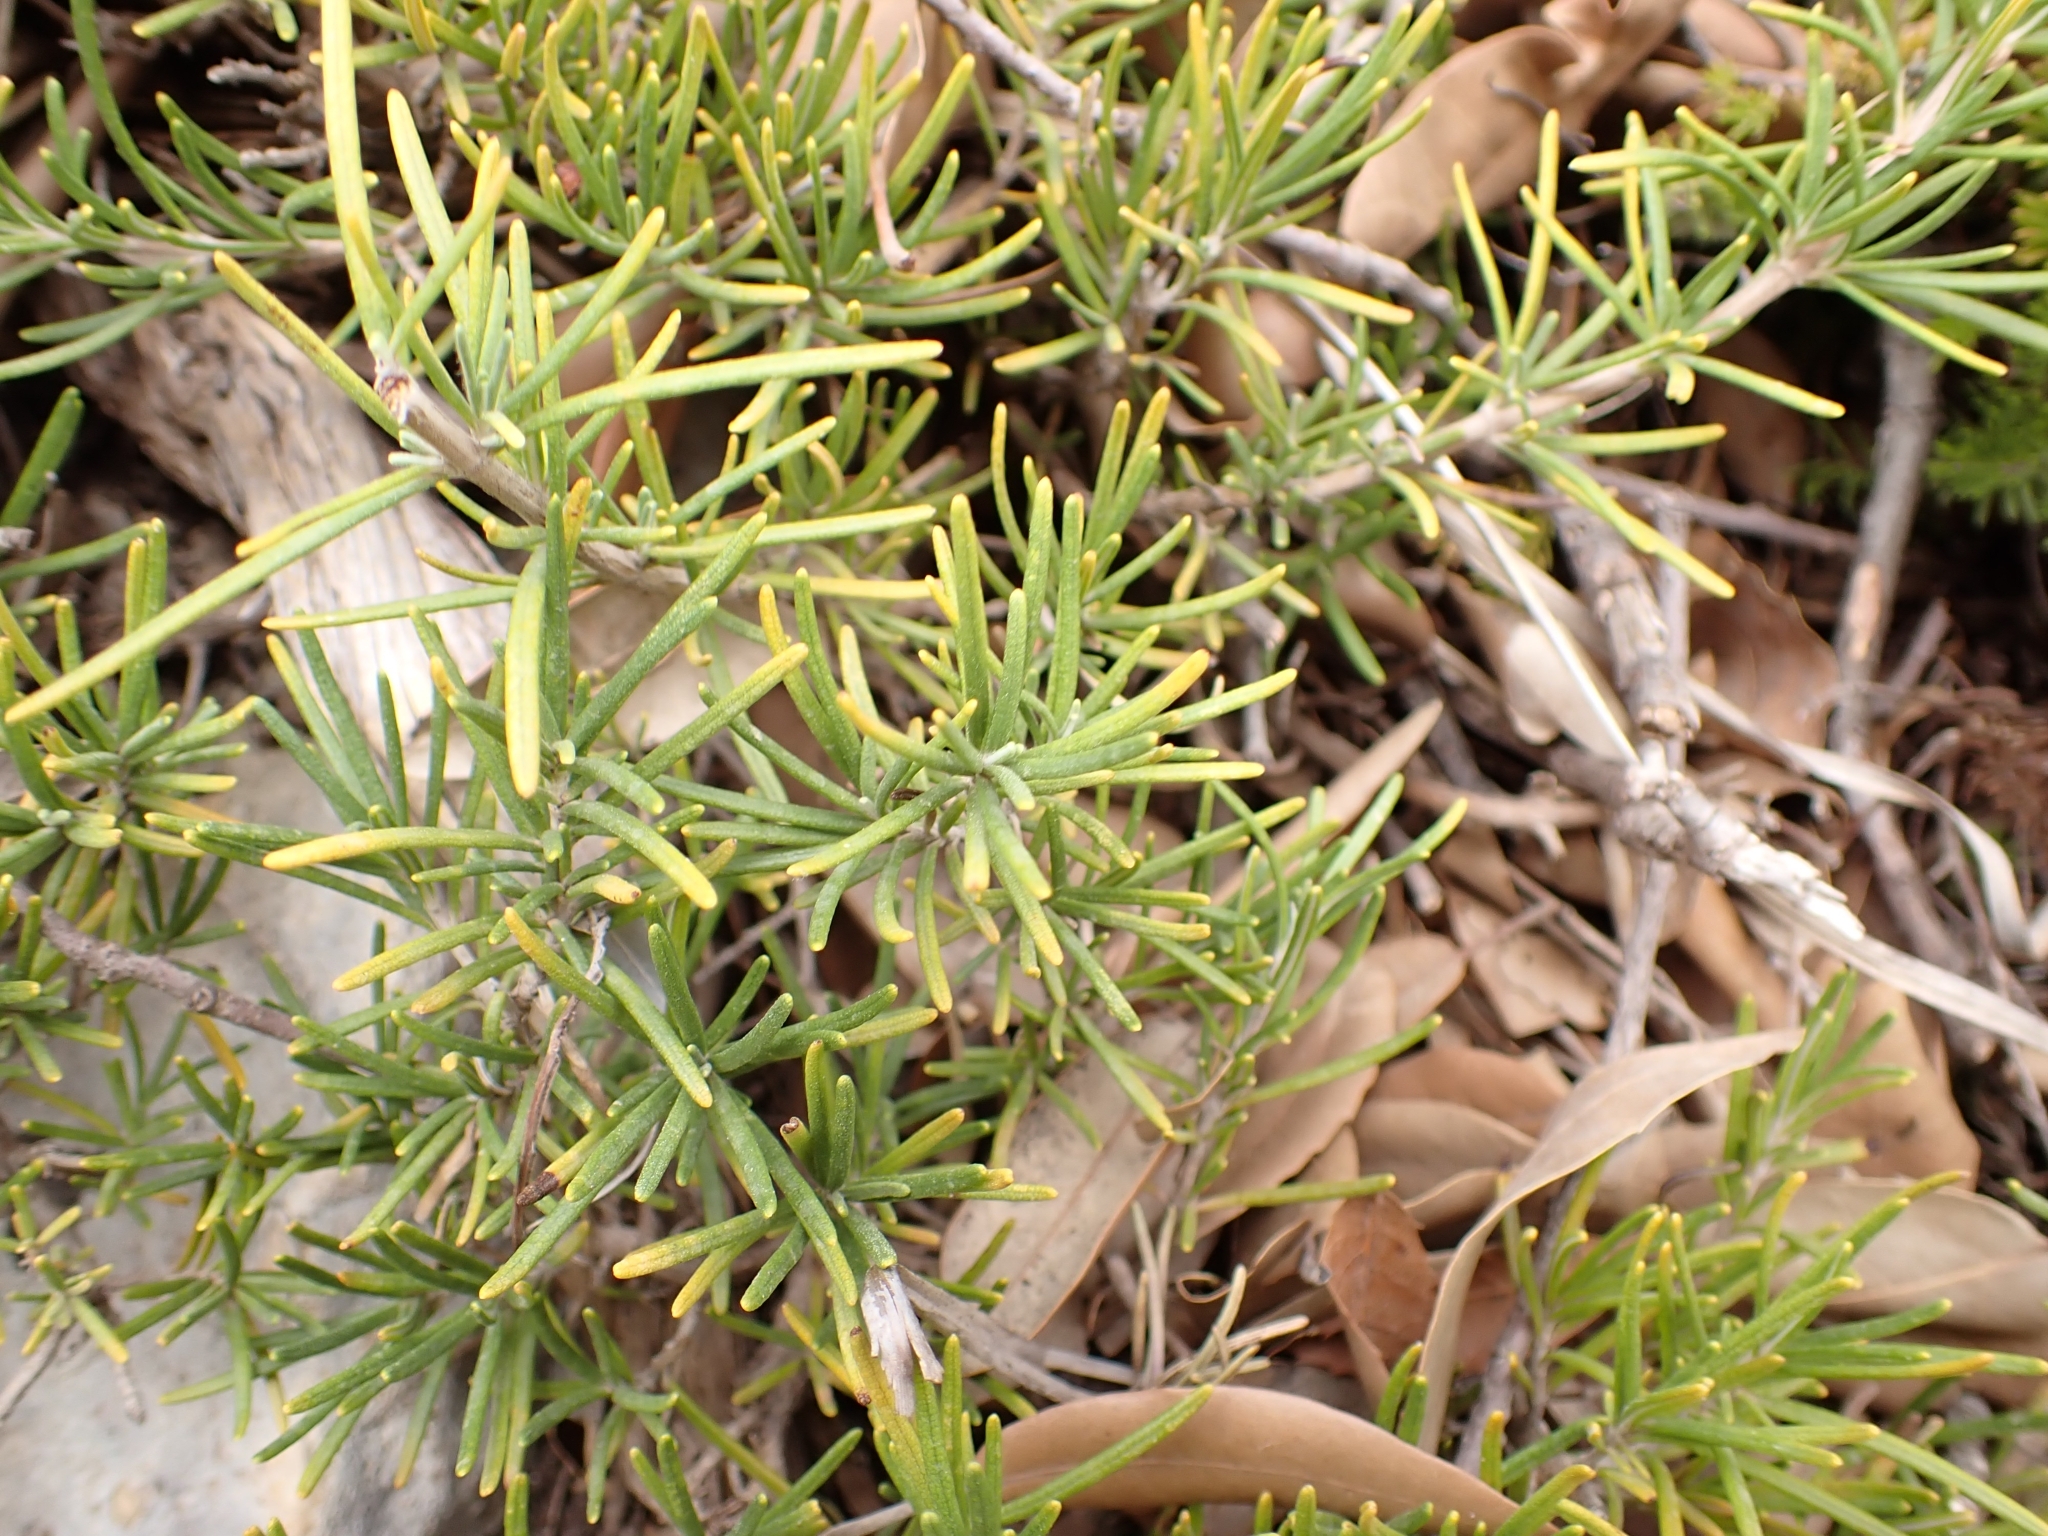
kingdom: Plantae
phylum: Tracheophyta
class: Magnoliopsida
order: Lamiales
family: Lamiaceae
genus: Salvia
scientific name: Salvia rosmarinus
